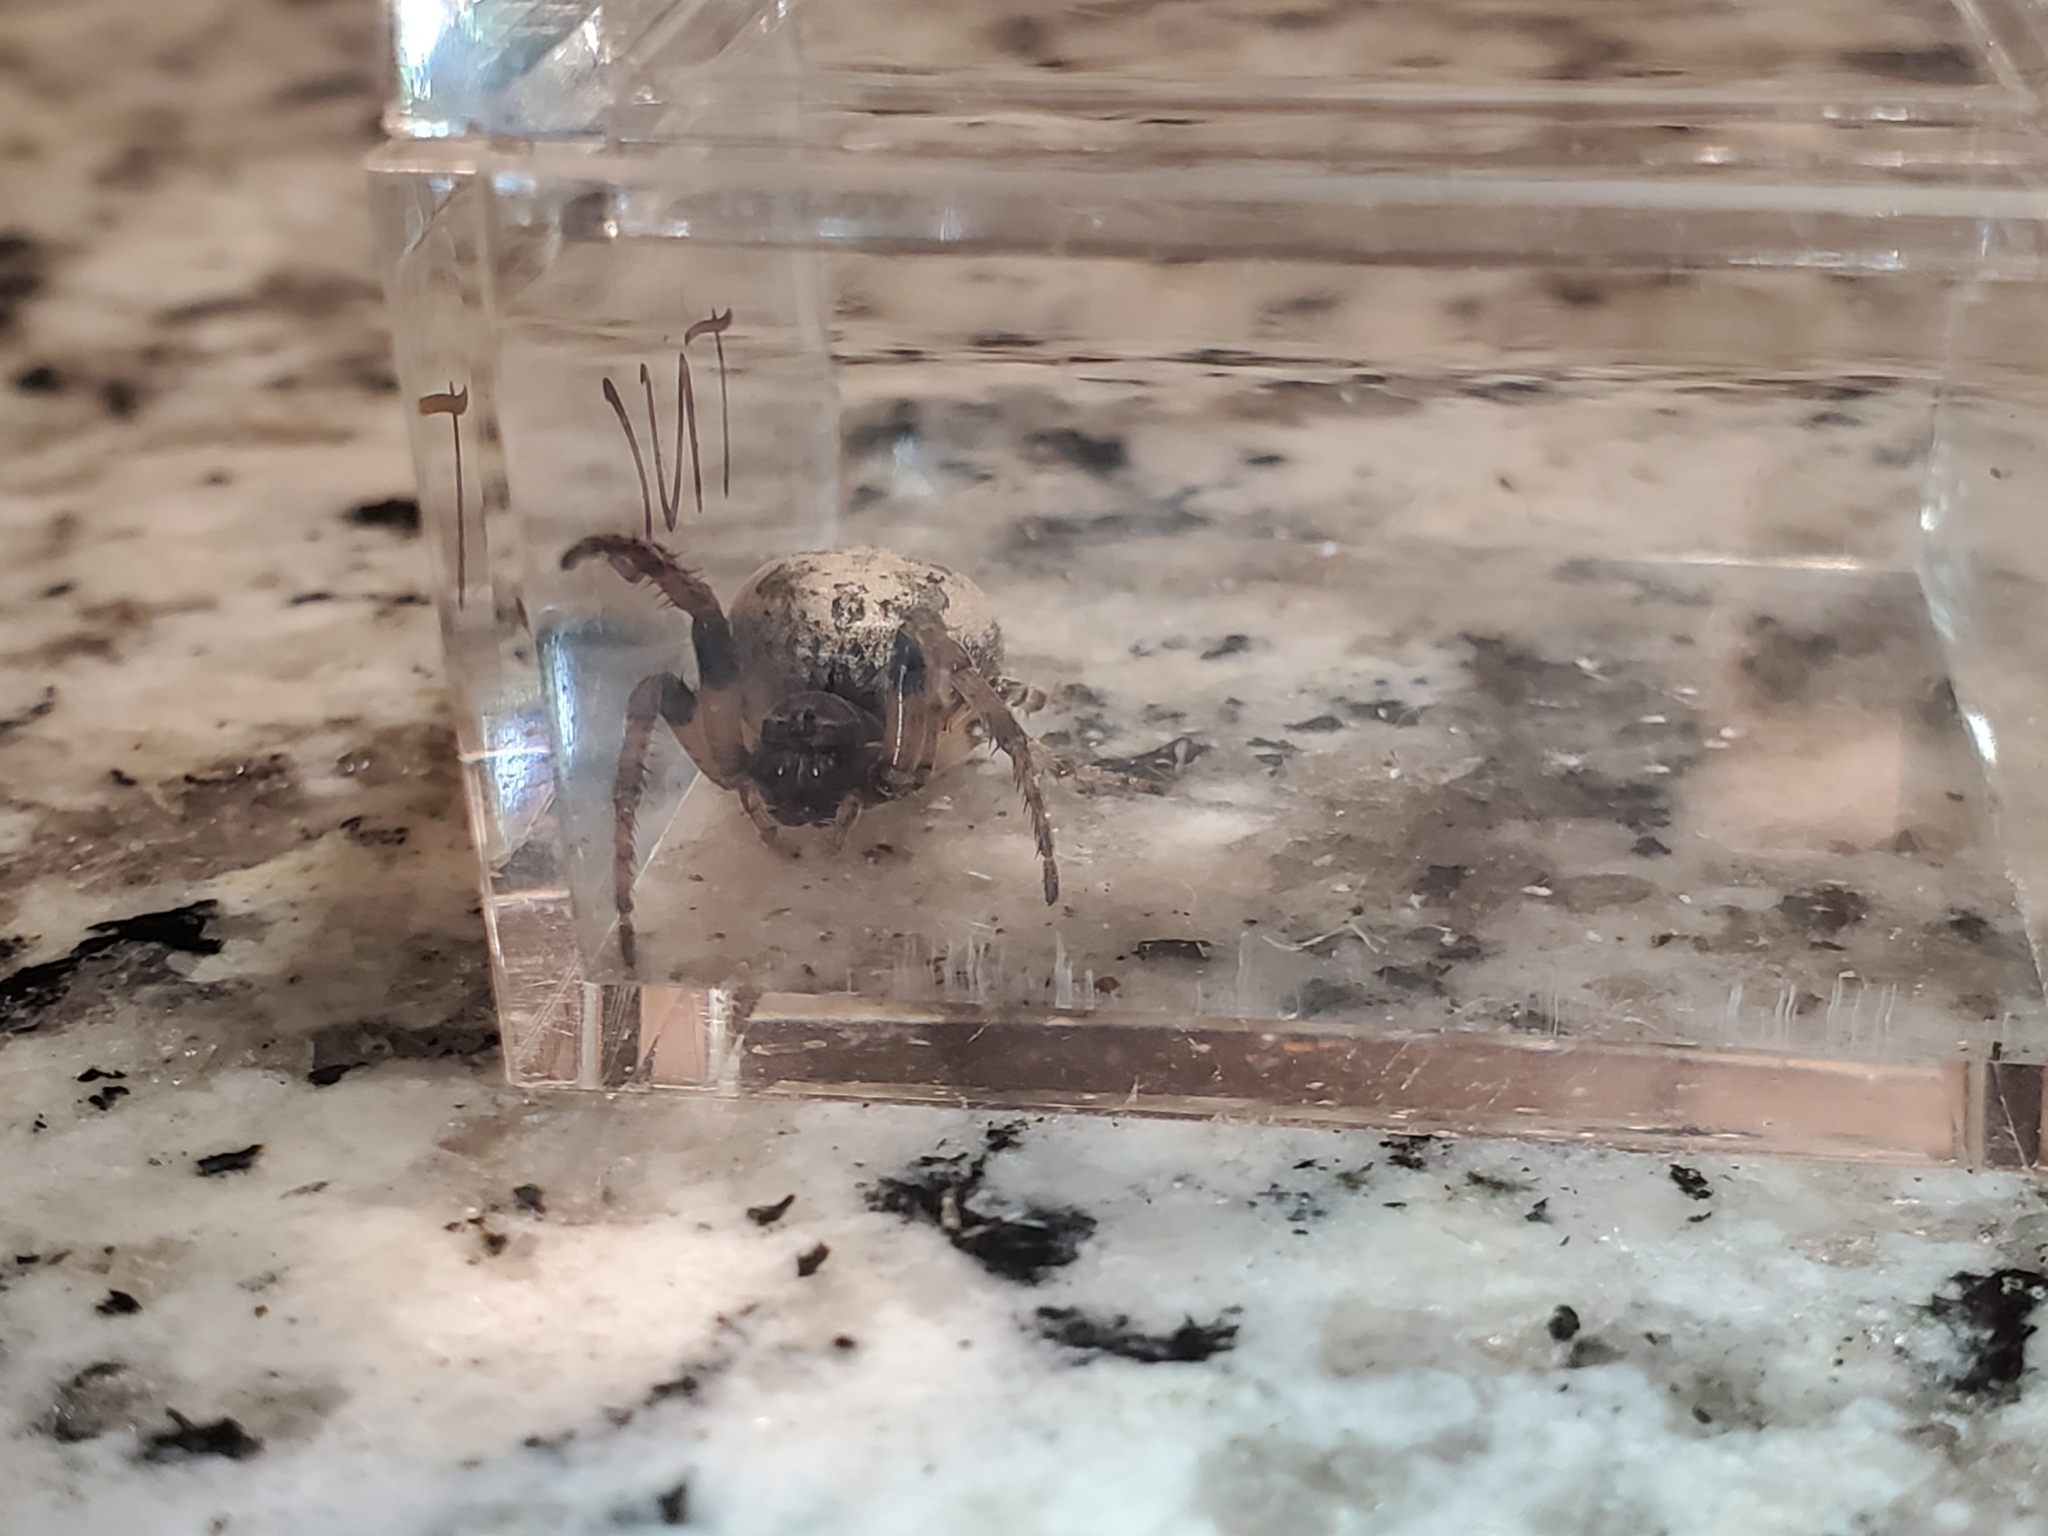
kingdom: Animalia
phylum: Arthropoda
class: Arachnida
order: Araneae
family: Araneidae
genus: Larinioides
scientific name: Larinioides cornutus
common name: Furrow orbweaver
